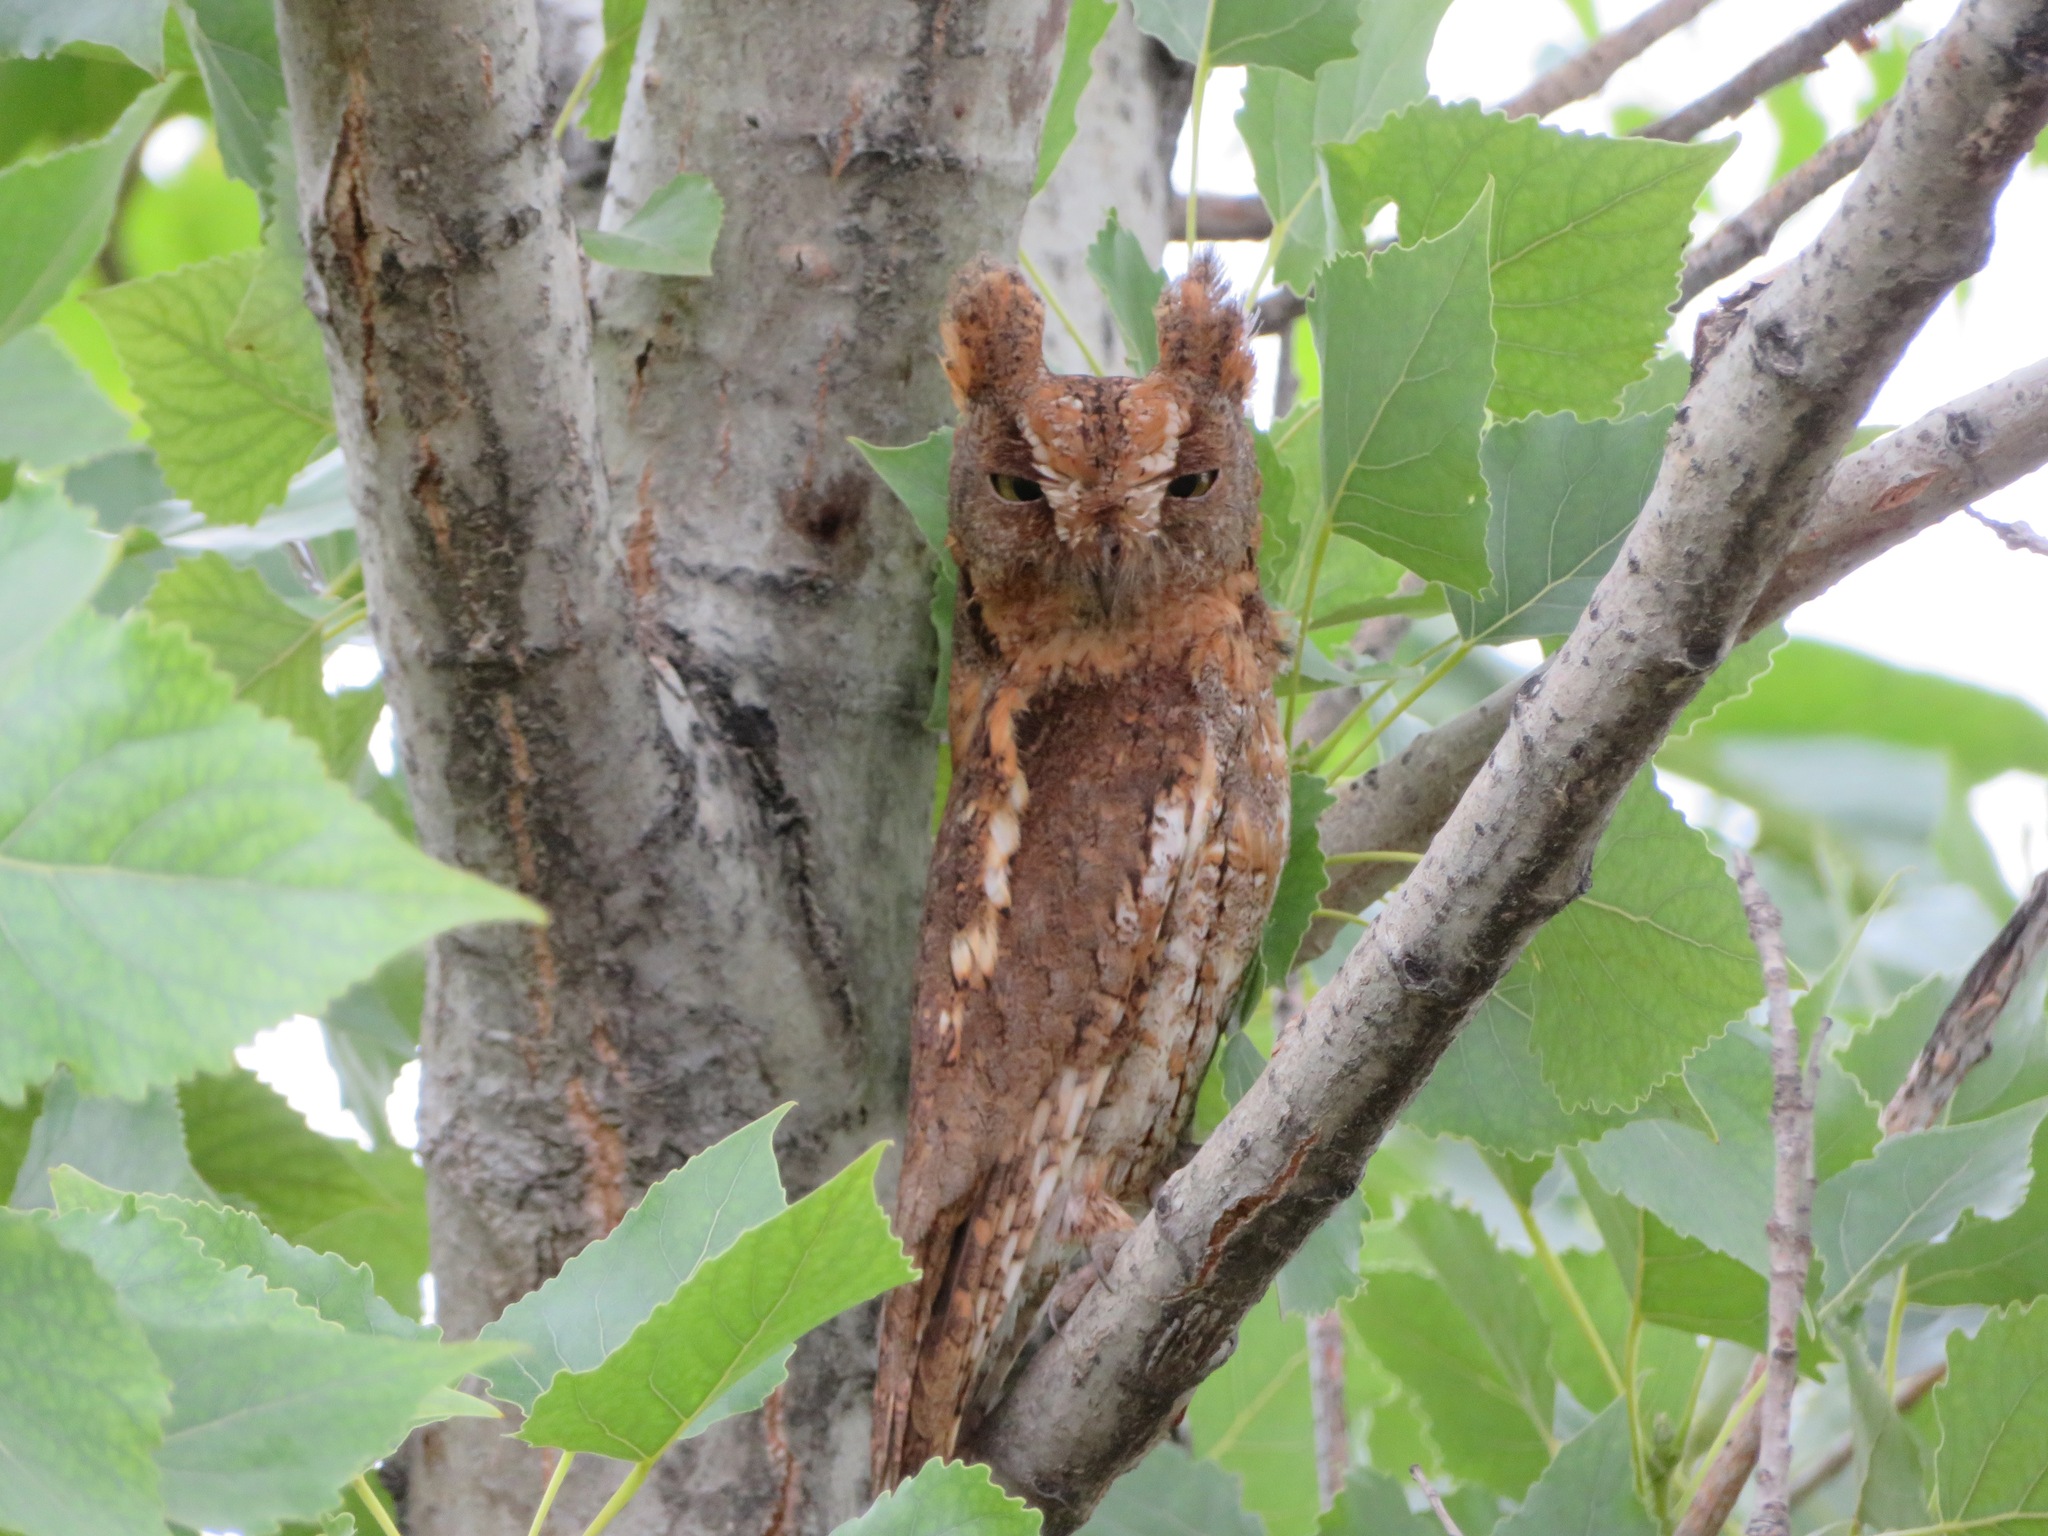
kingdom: Animalia
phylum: Chordata
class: Aves
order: Strigiformes
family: Strigidae
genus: Otus
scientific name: Otus sunia
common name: Oriental scops-owl
